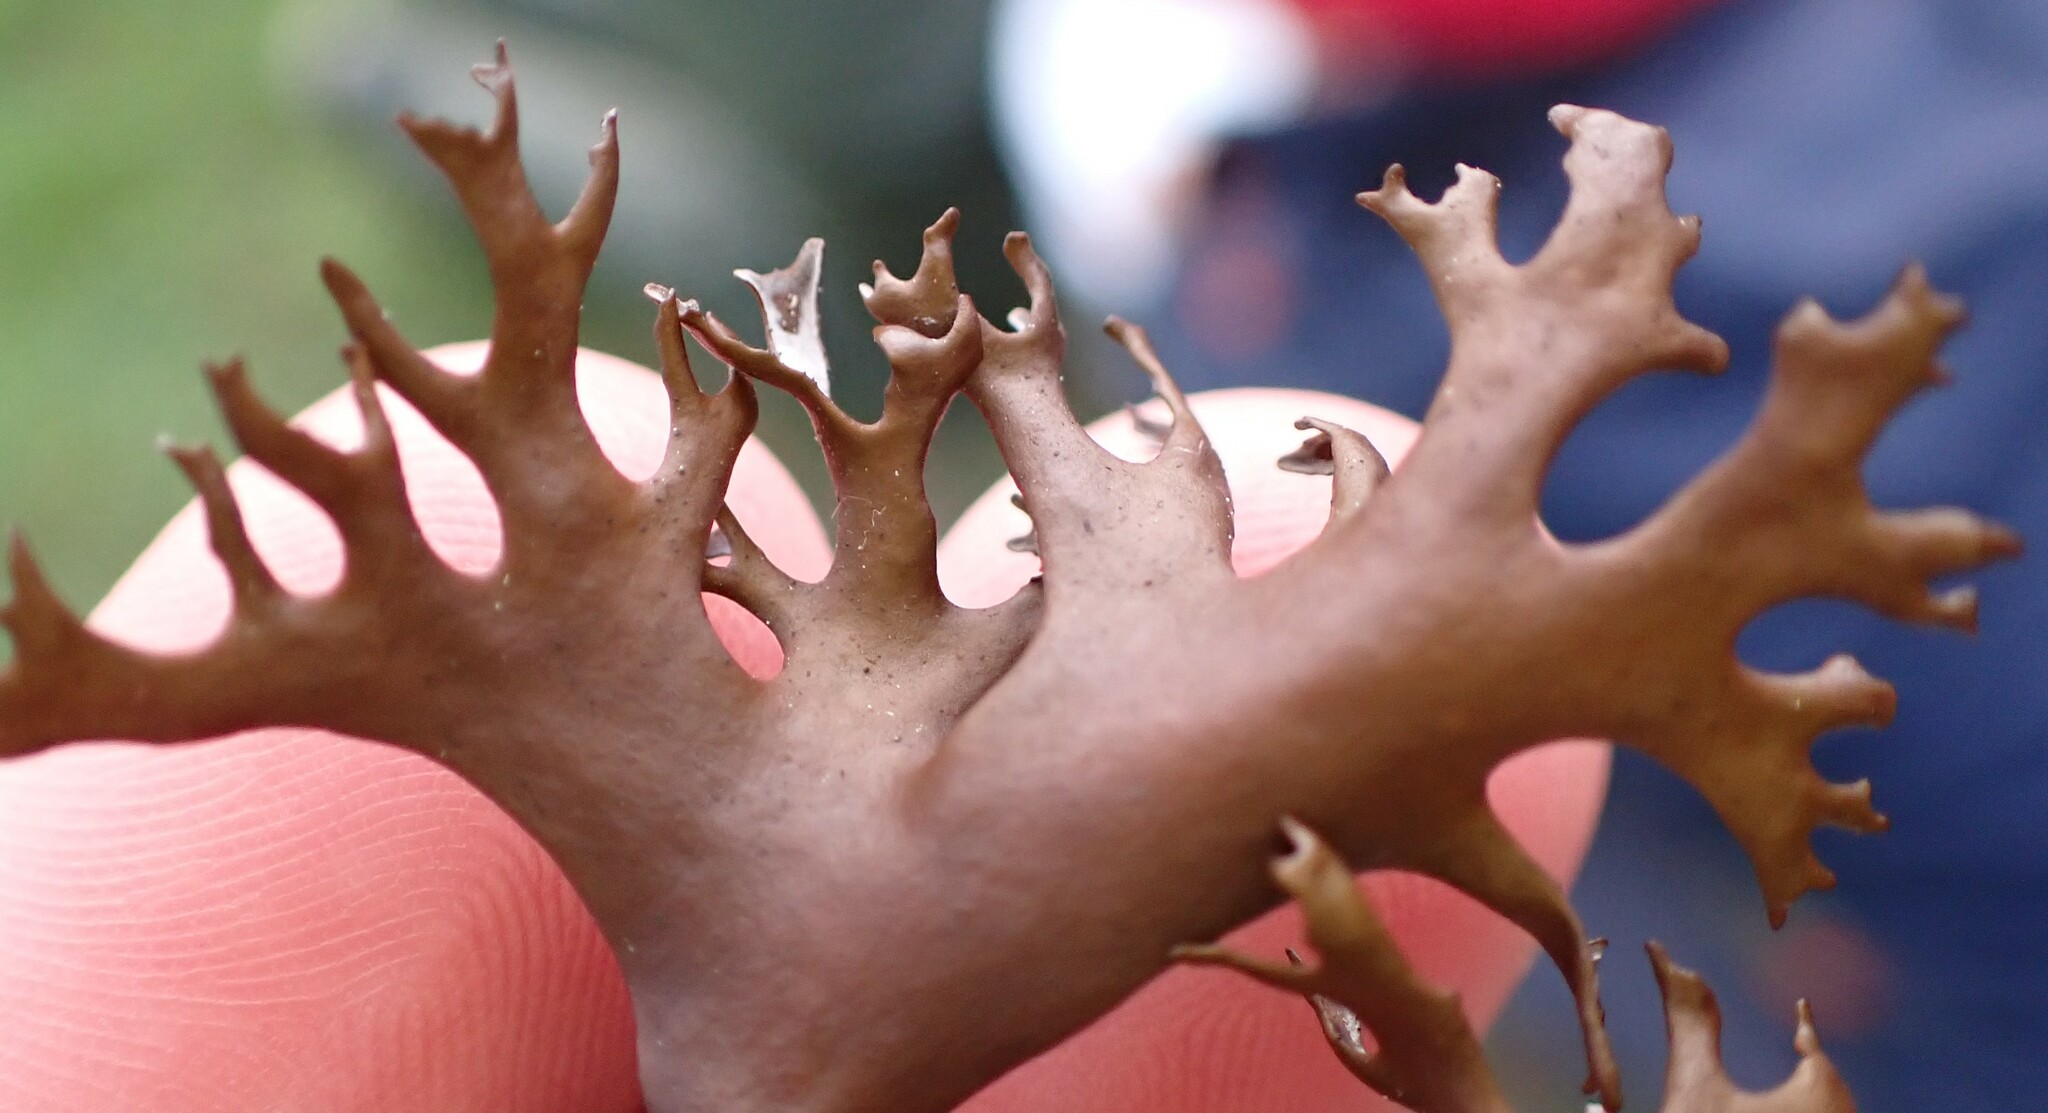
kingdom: Fungi
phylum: Ascomycota
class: Lecanoromycetes
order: Lecanorales
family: Parmeliaceae
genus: Nephromopsis
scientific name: Nephromopsis richardsonii
